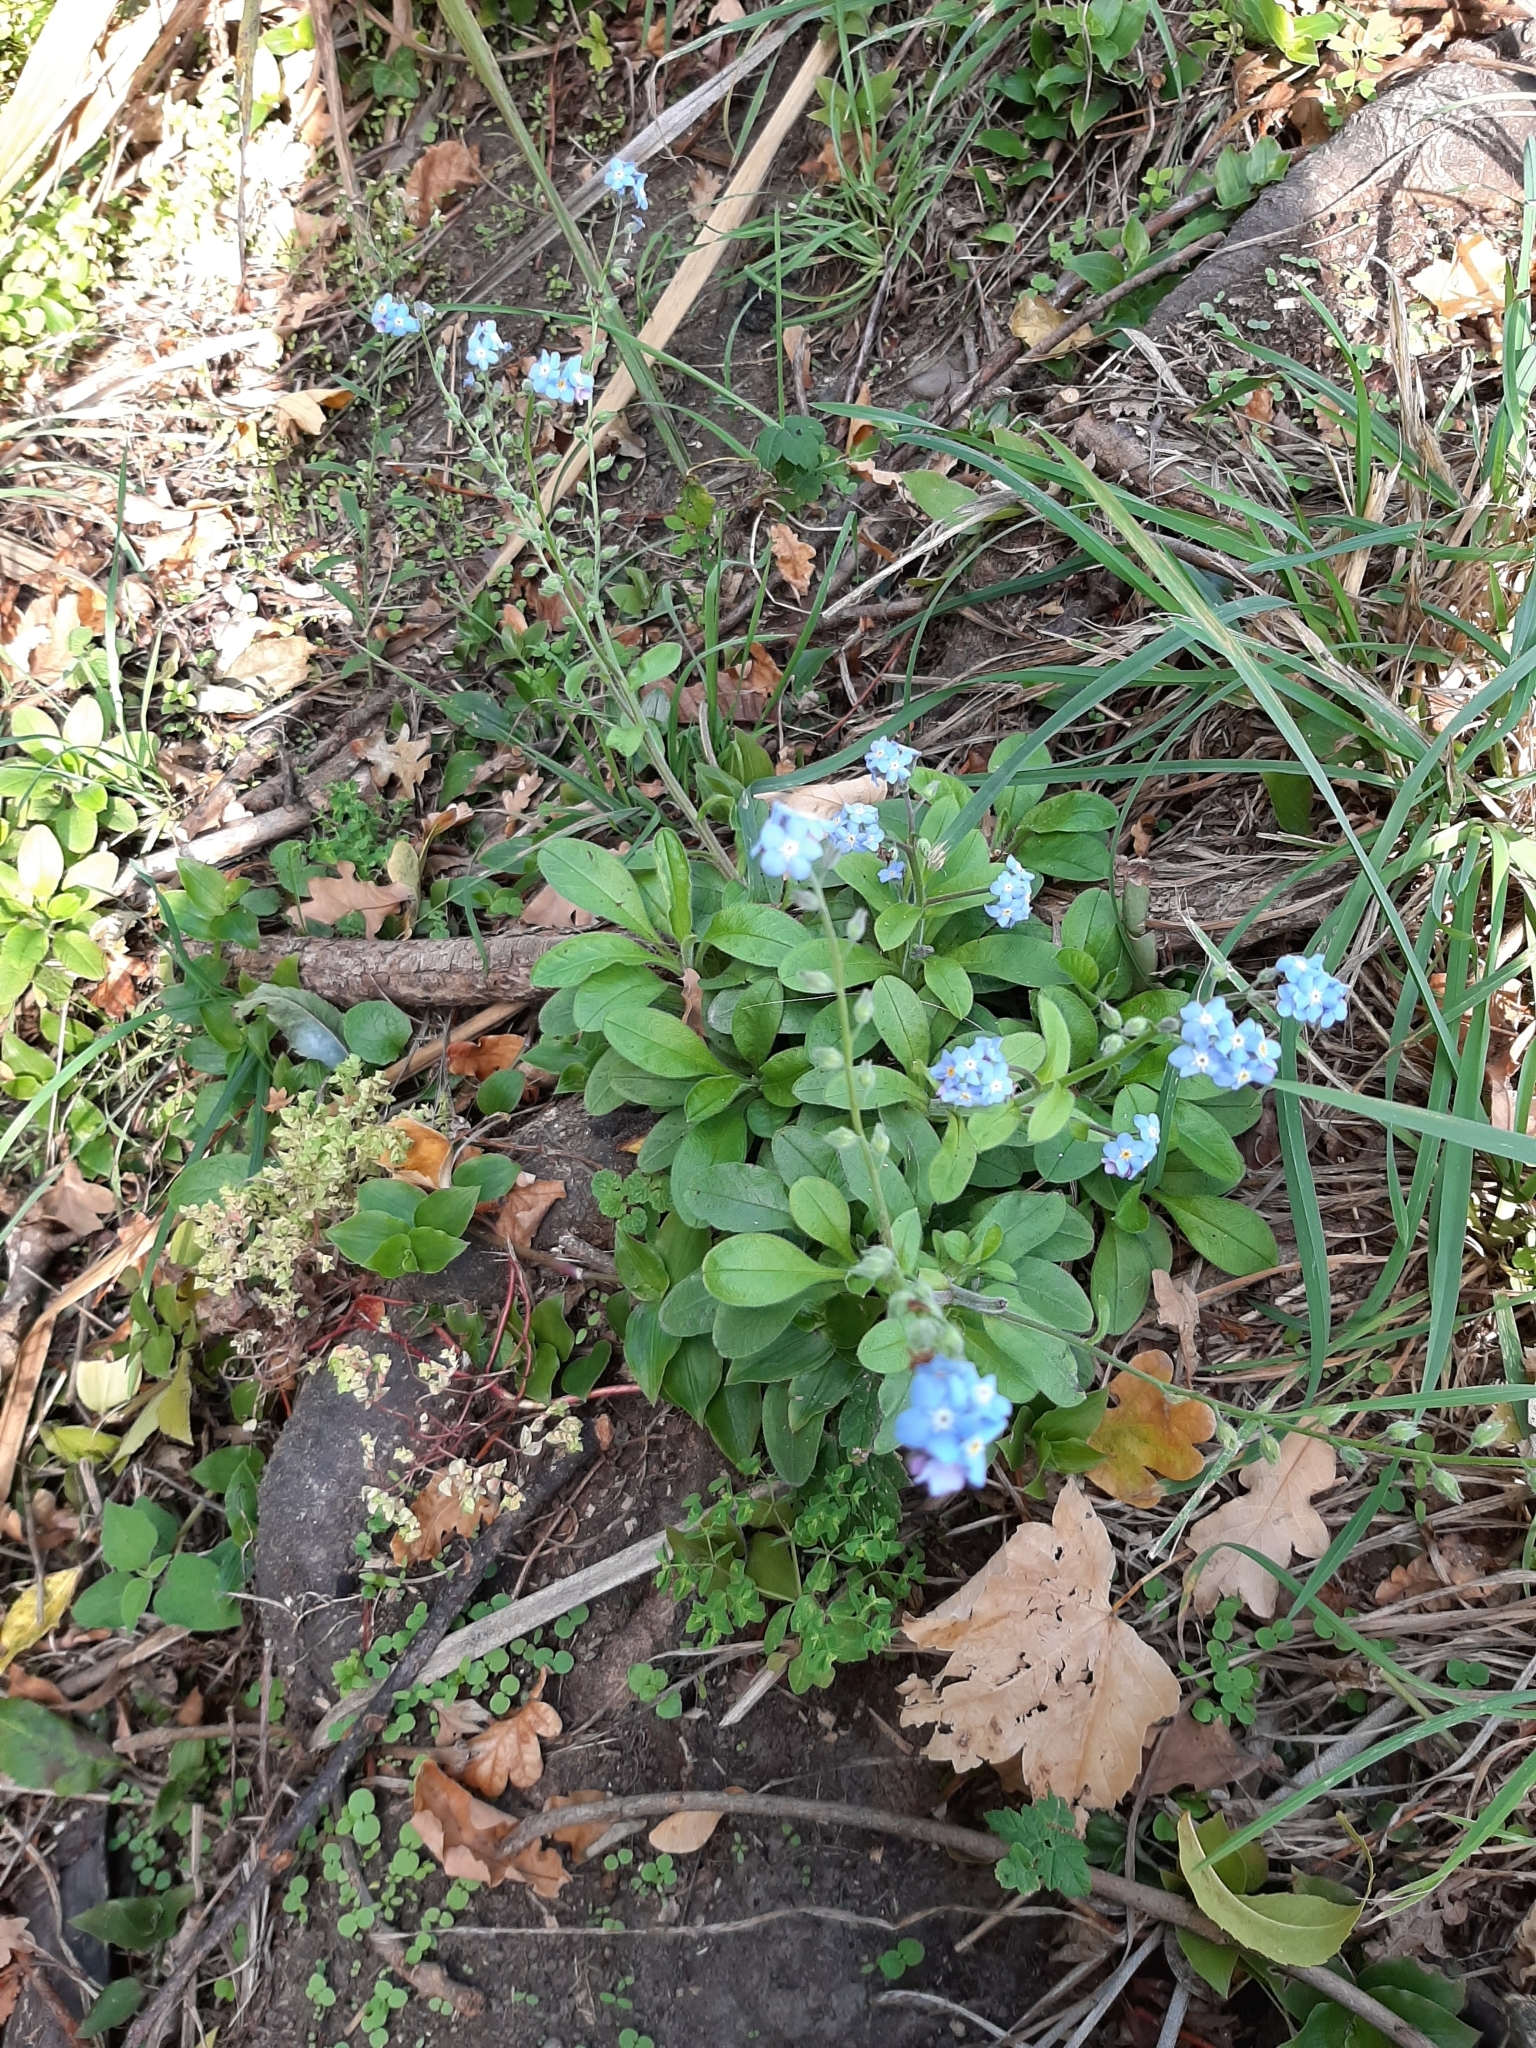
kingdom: Plantae
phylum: Tracheophyta
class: Magnoliopsida
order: Boraginales
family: Boraginaceae
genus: Myosotis
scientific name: Myosotis sylvatica
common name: Wood forget-me-not
